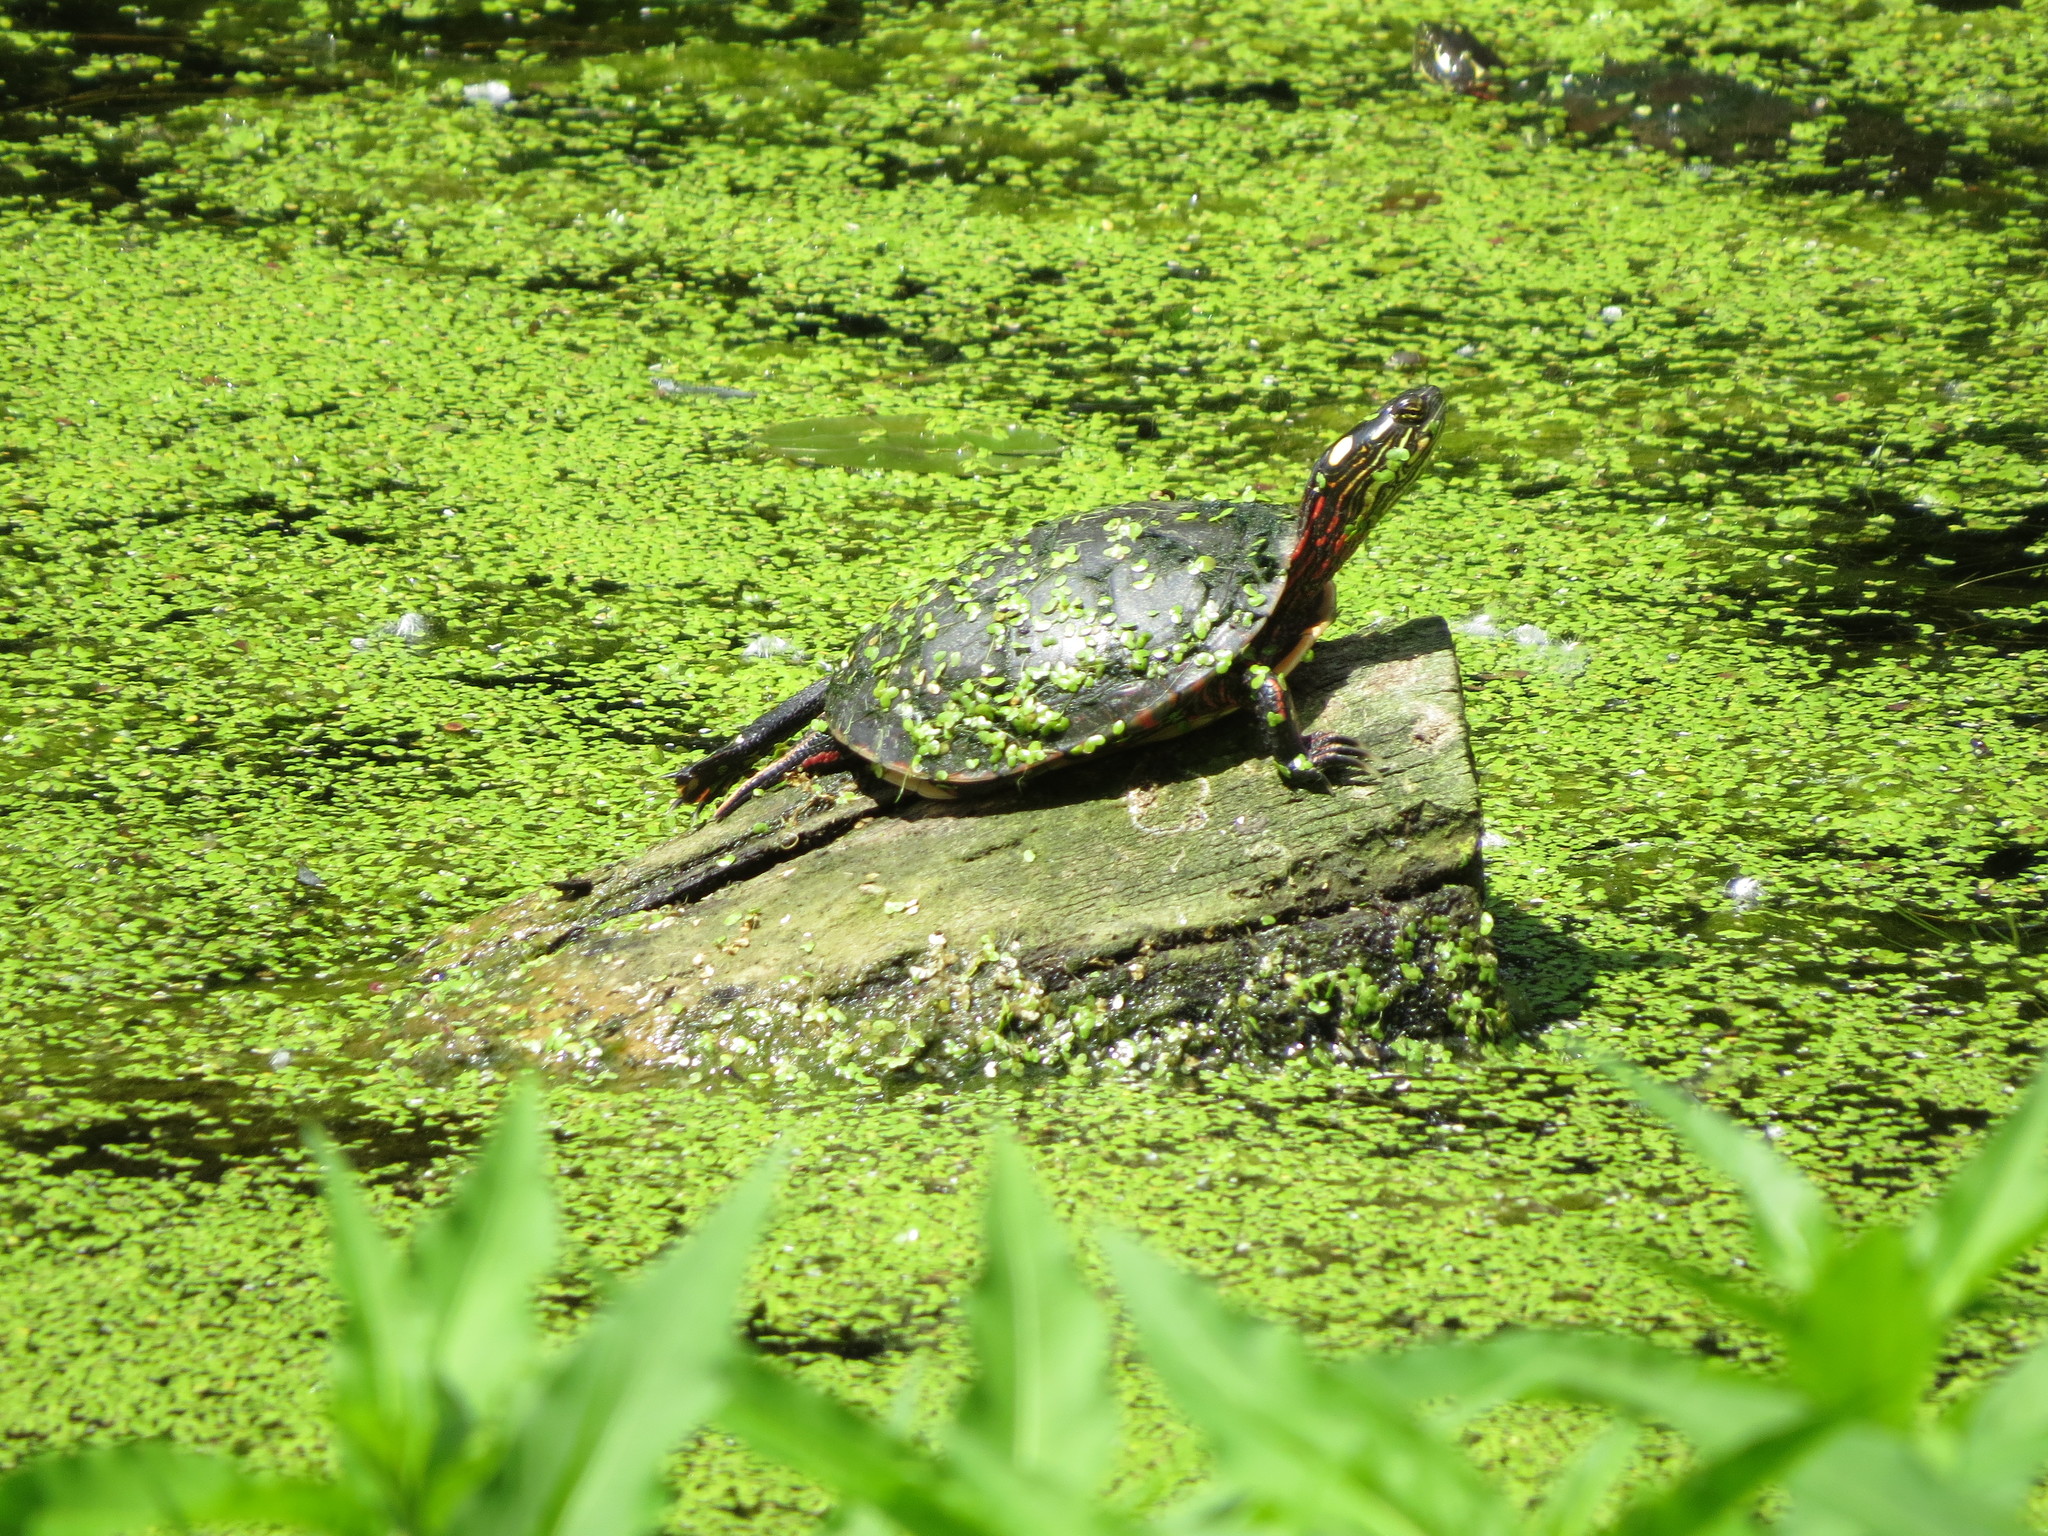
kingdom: Animalia
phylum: Chordata
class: Testudines
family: Emydidae
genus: Chrysemys
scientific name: Chrysemys picta
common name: Painted turtle
